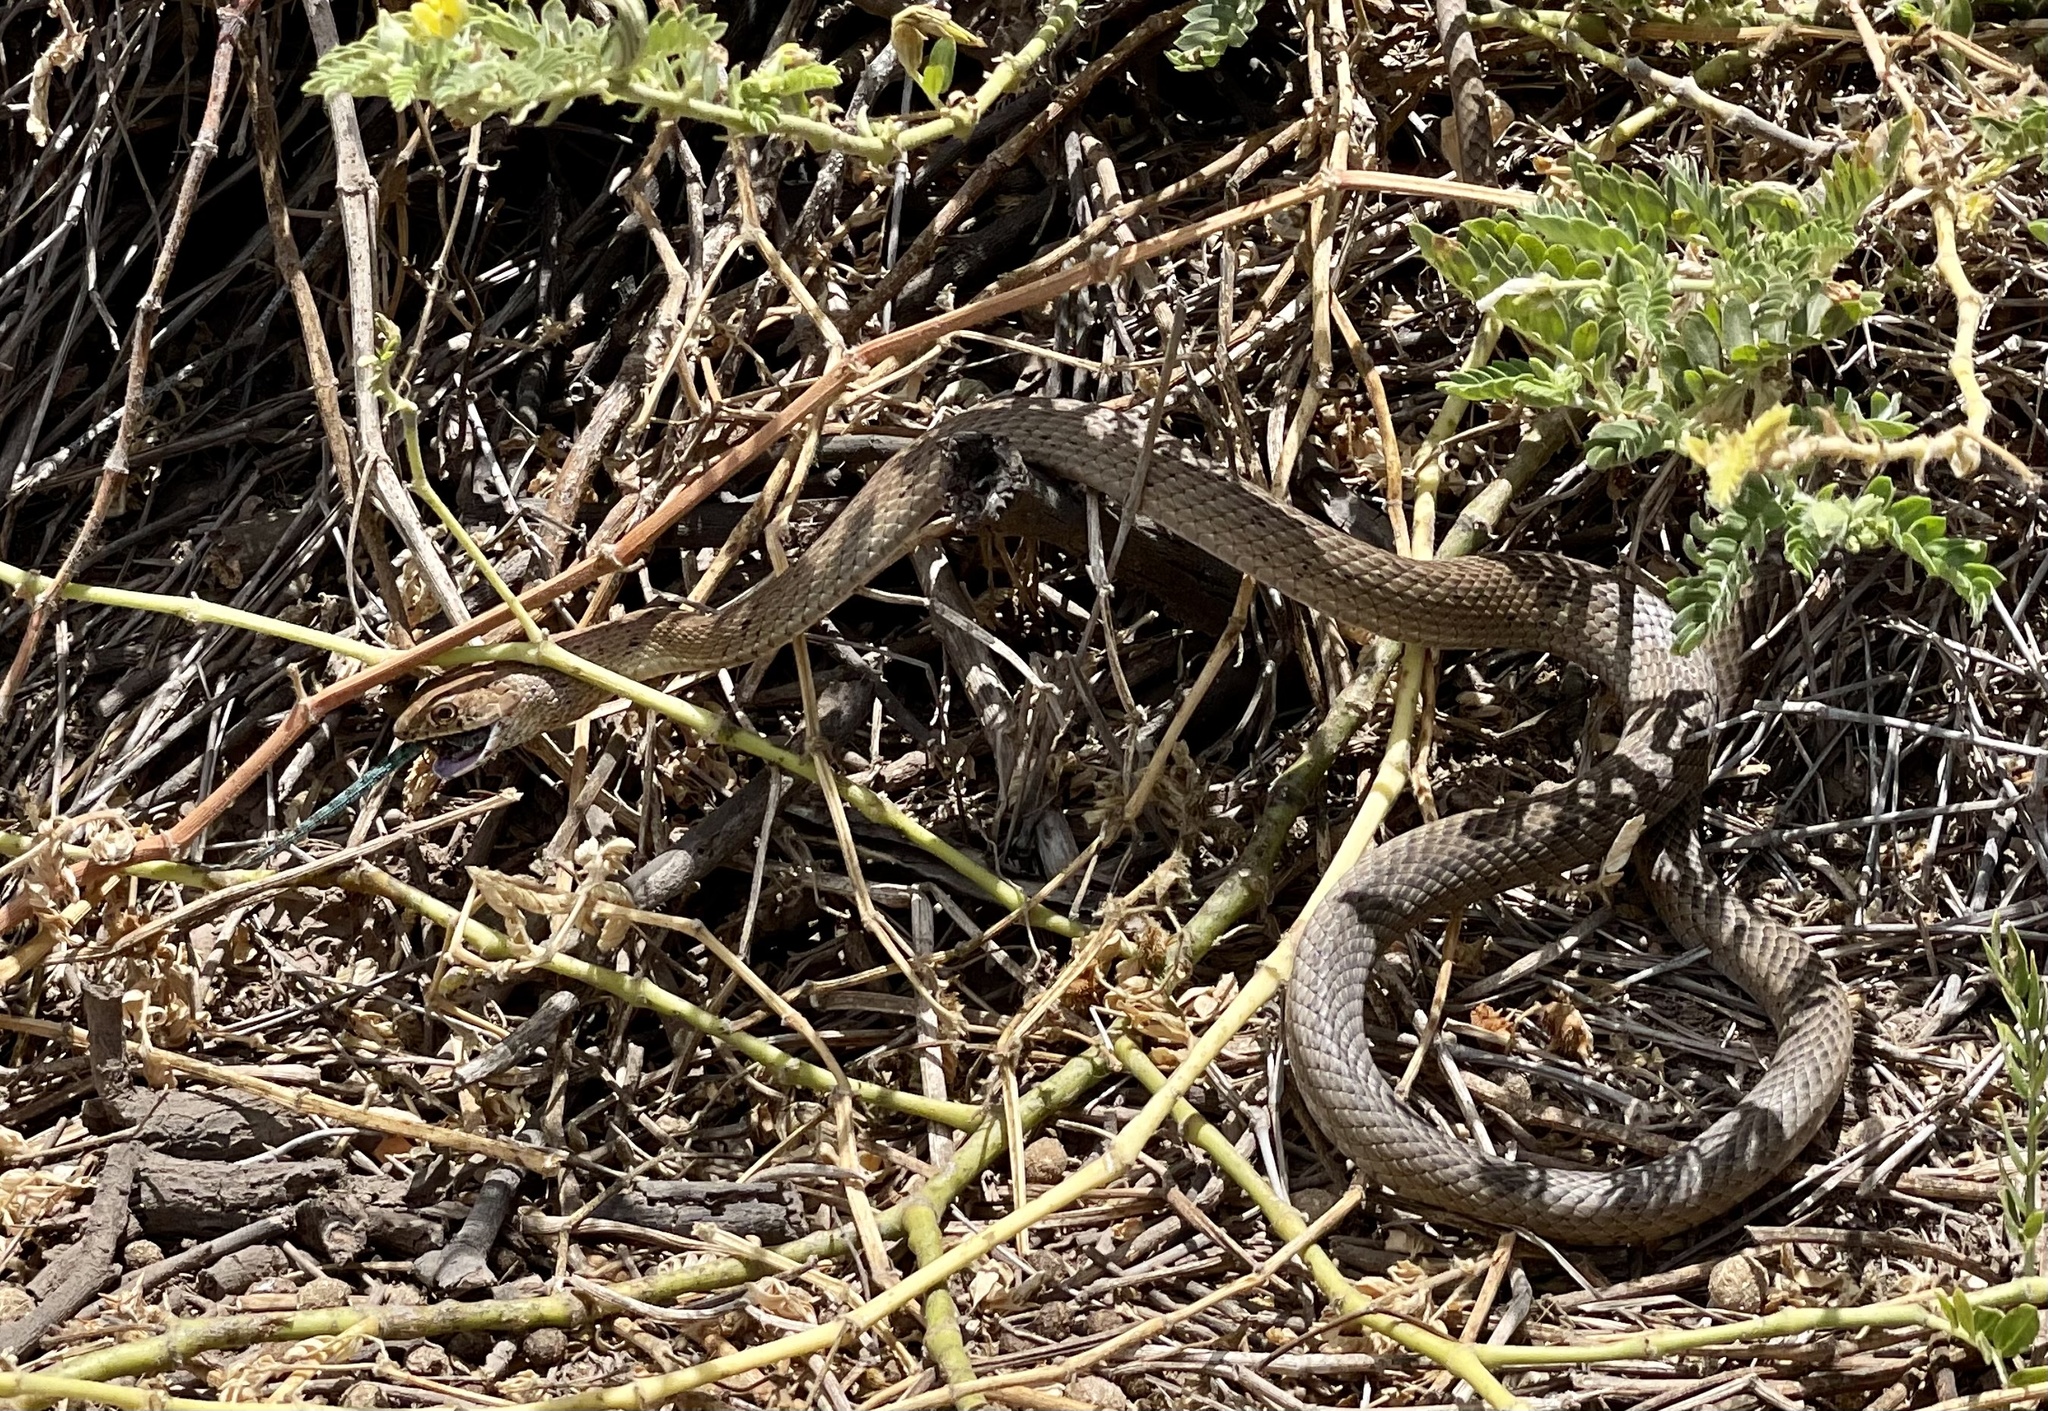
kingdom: Animalia
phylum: Chordata
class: Squamata
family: Colubridae
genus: Masticophis
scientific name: Masticophis anthonyi
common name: Clarion island whip snake
